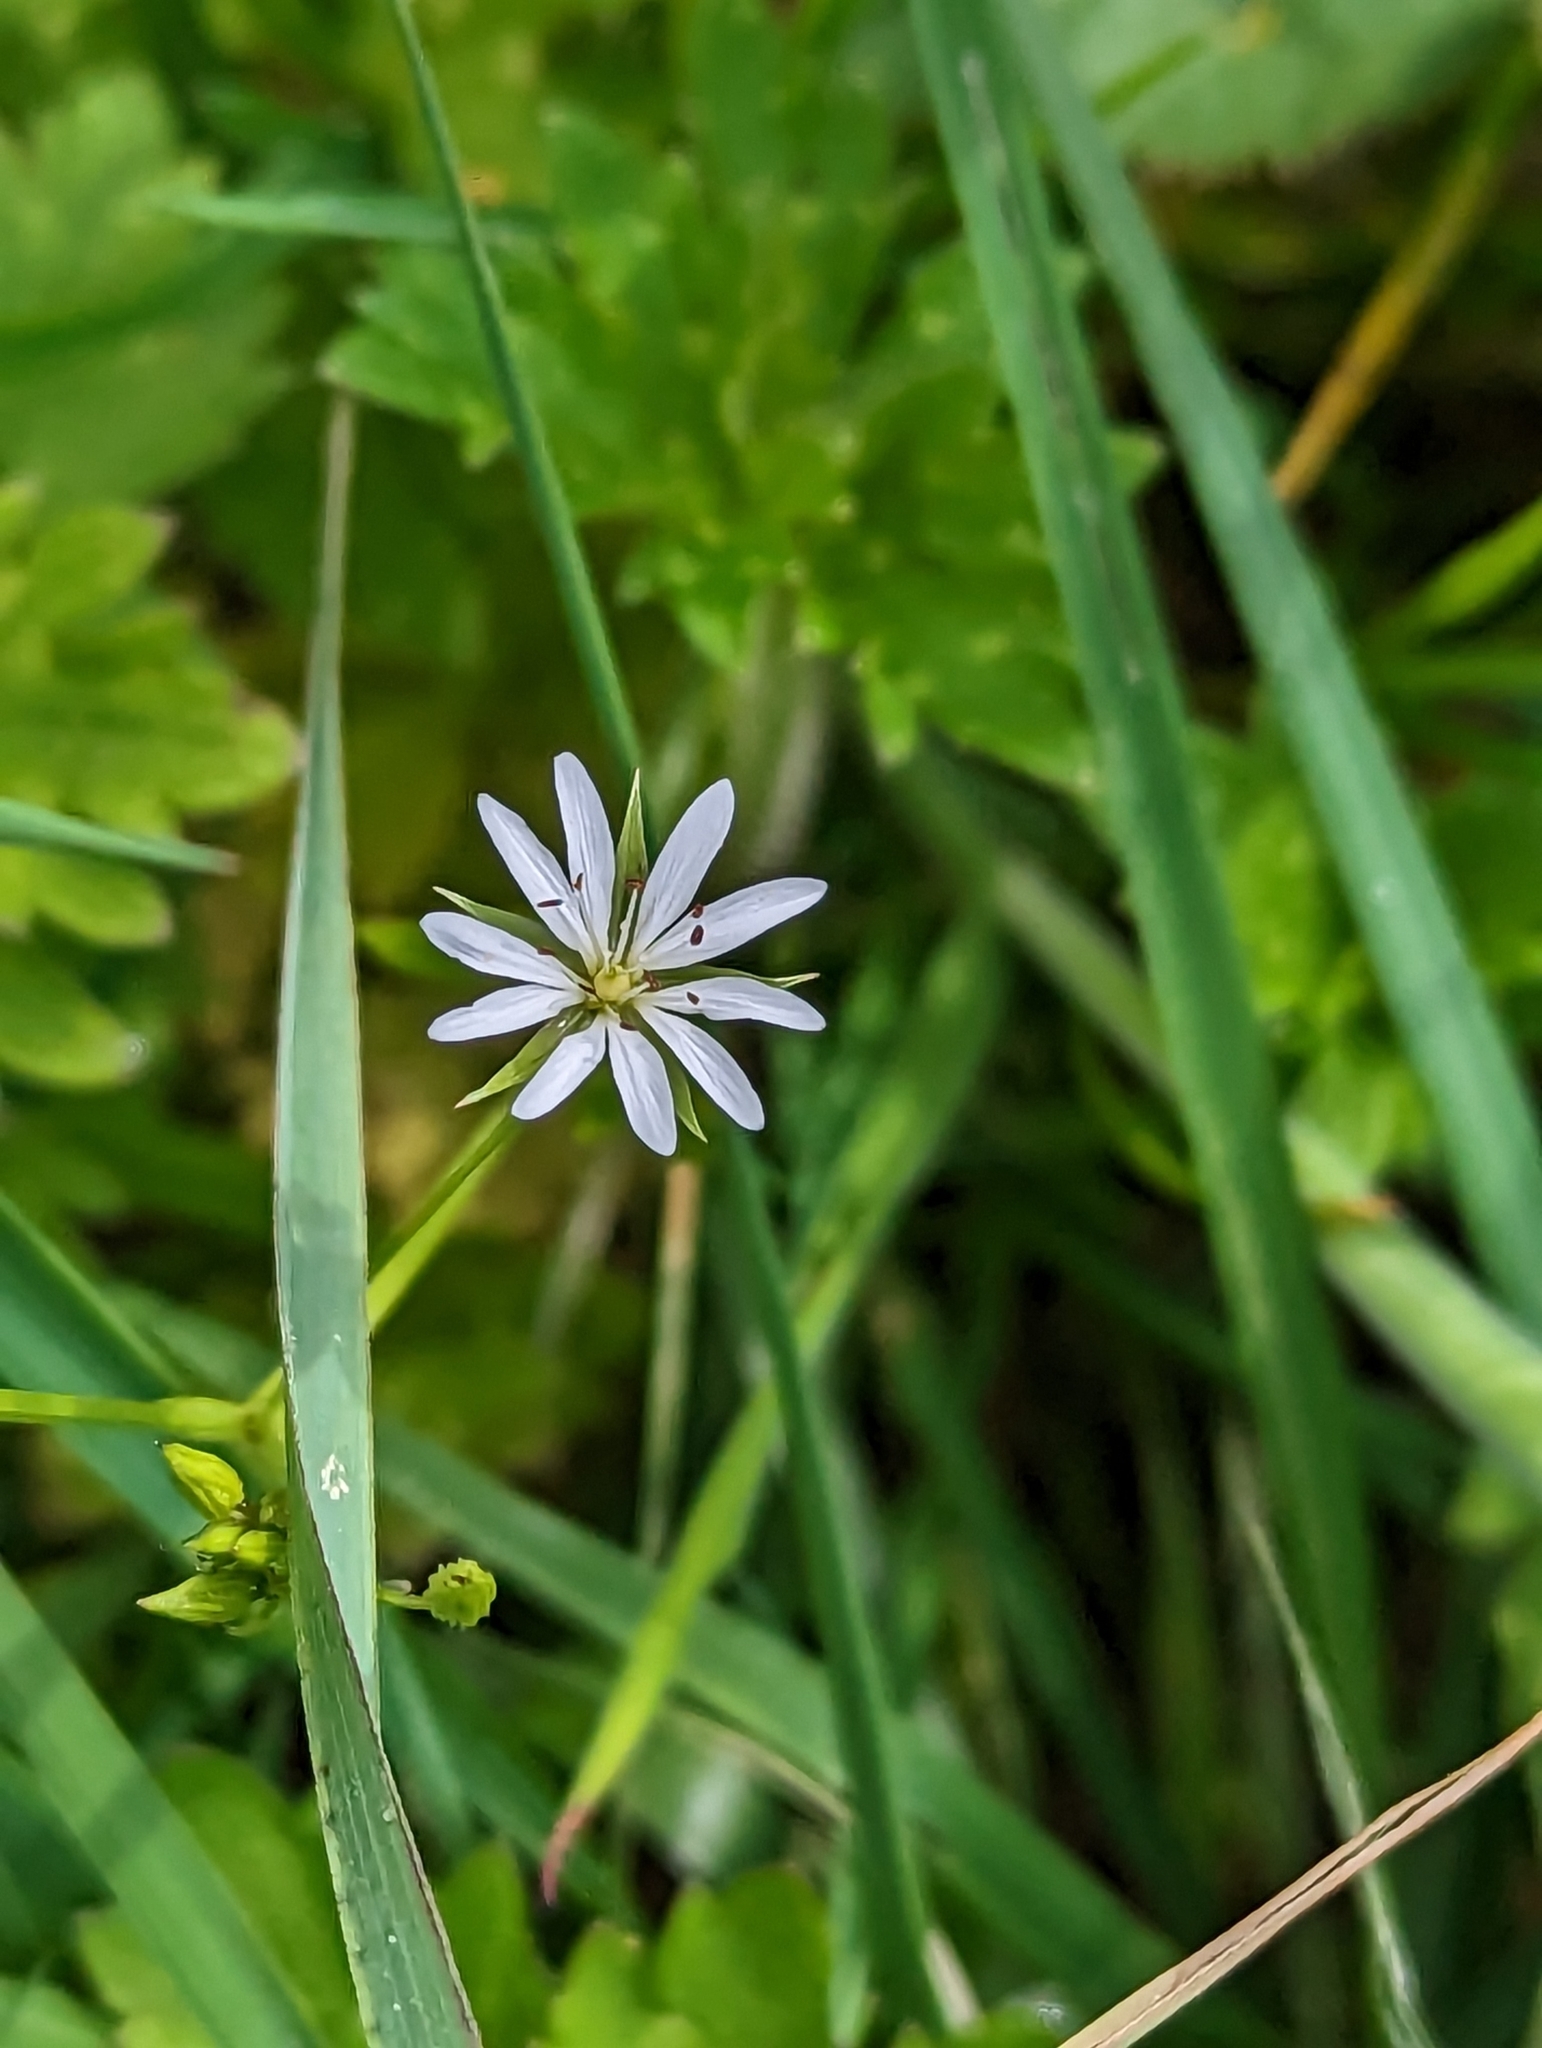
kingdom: Plantae
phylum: Tracheophyta
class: Magnoliopsida
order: Caryophyllales
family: Caryophyllaceae
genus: Stellaria
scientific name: Stellaria graminea
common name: Grass-like starwort
